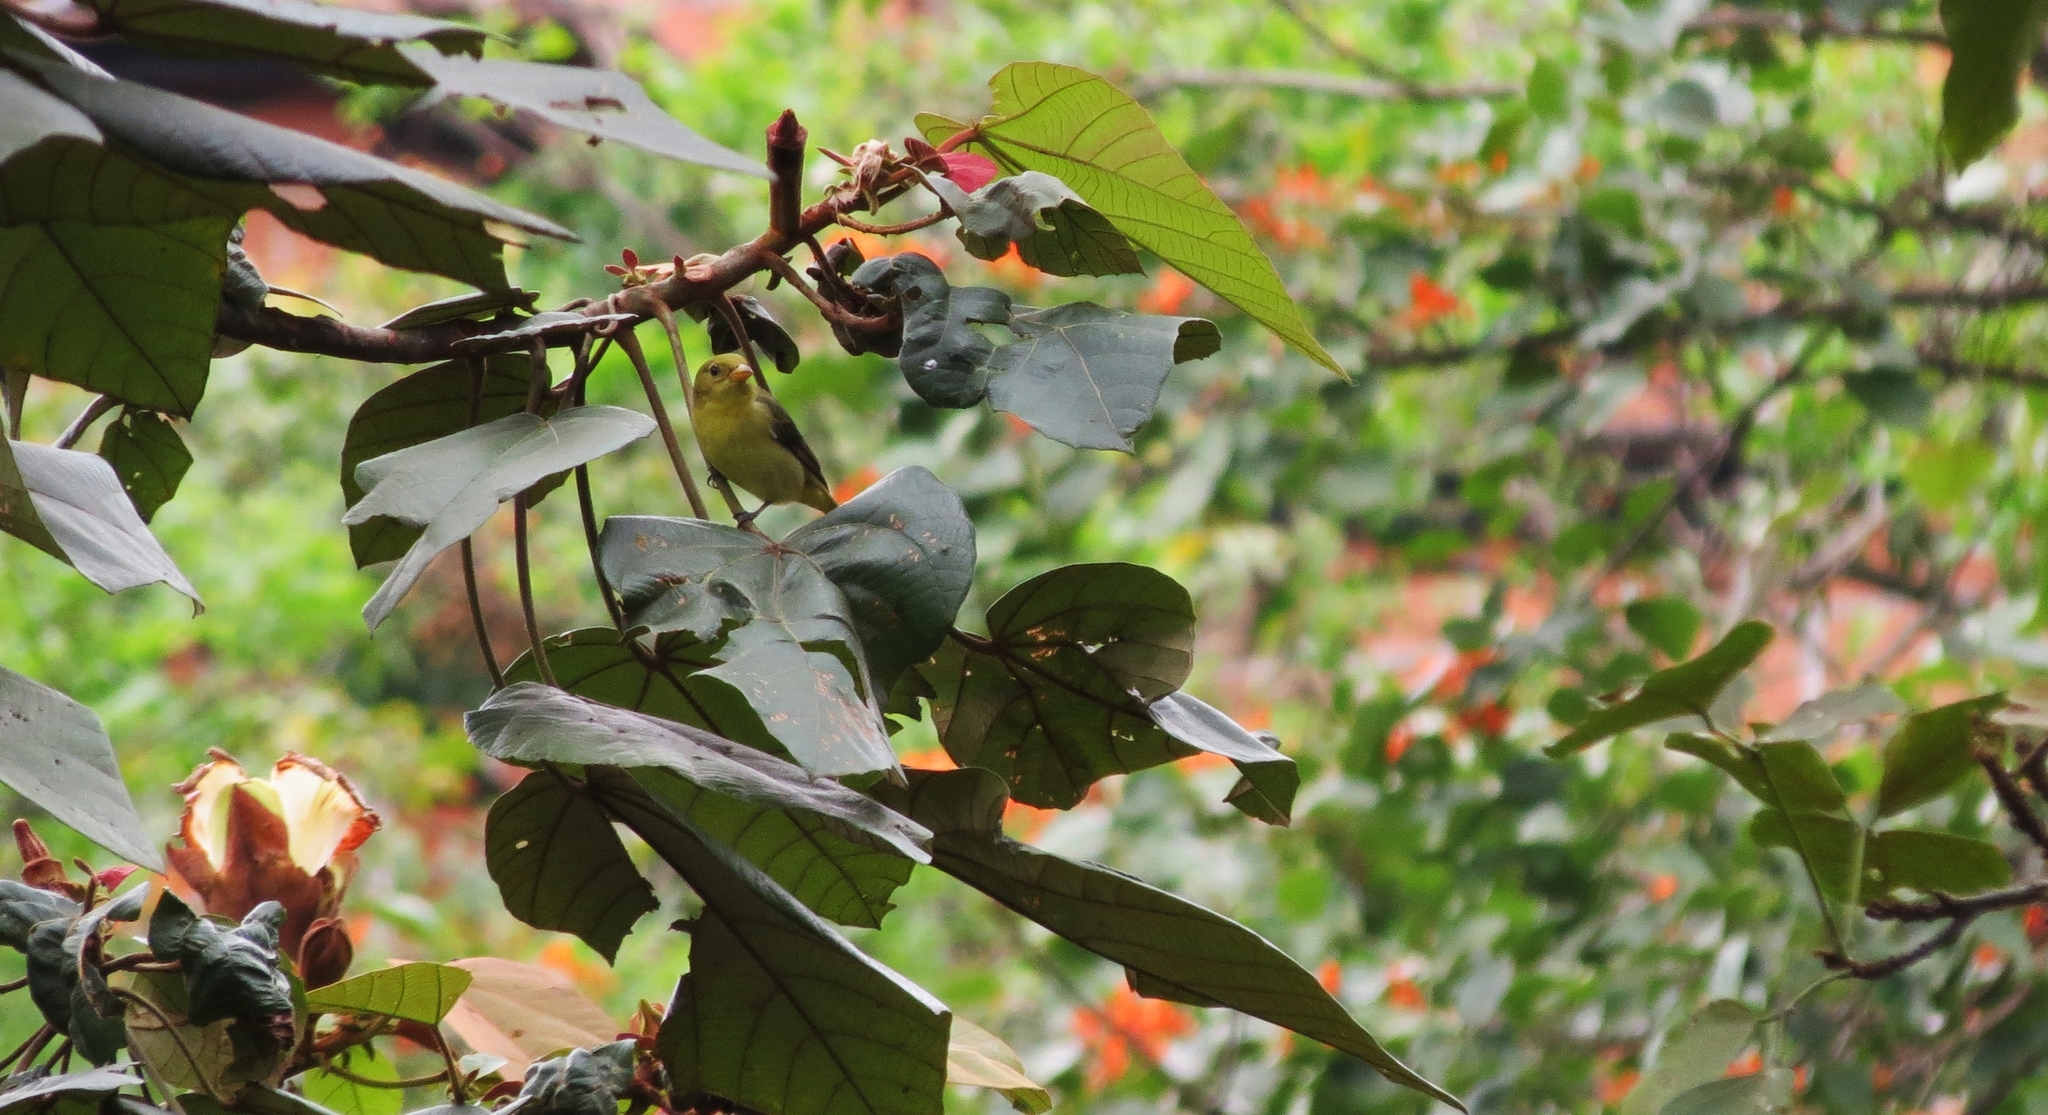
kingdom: Animalia
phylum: Chordata
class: Aves
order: Passeriformes
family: Cardinalidae
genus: Piranga
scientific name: Piranga olivacea
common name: Scarlet tanager
